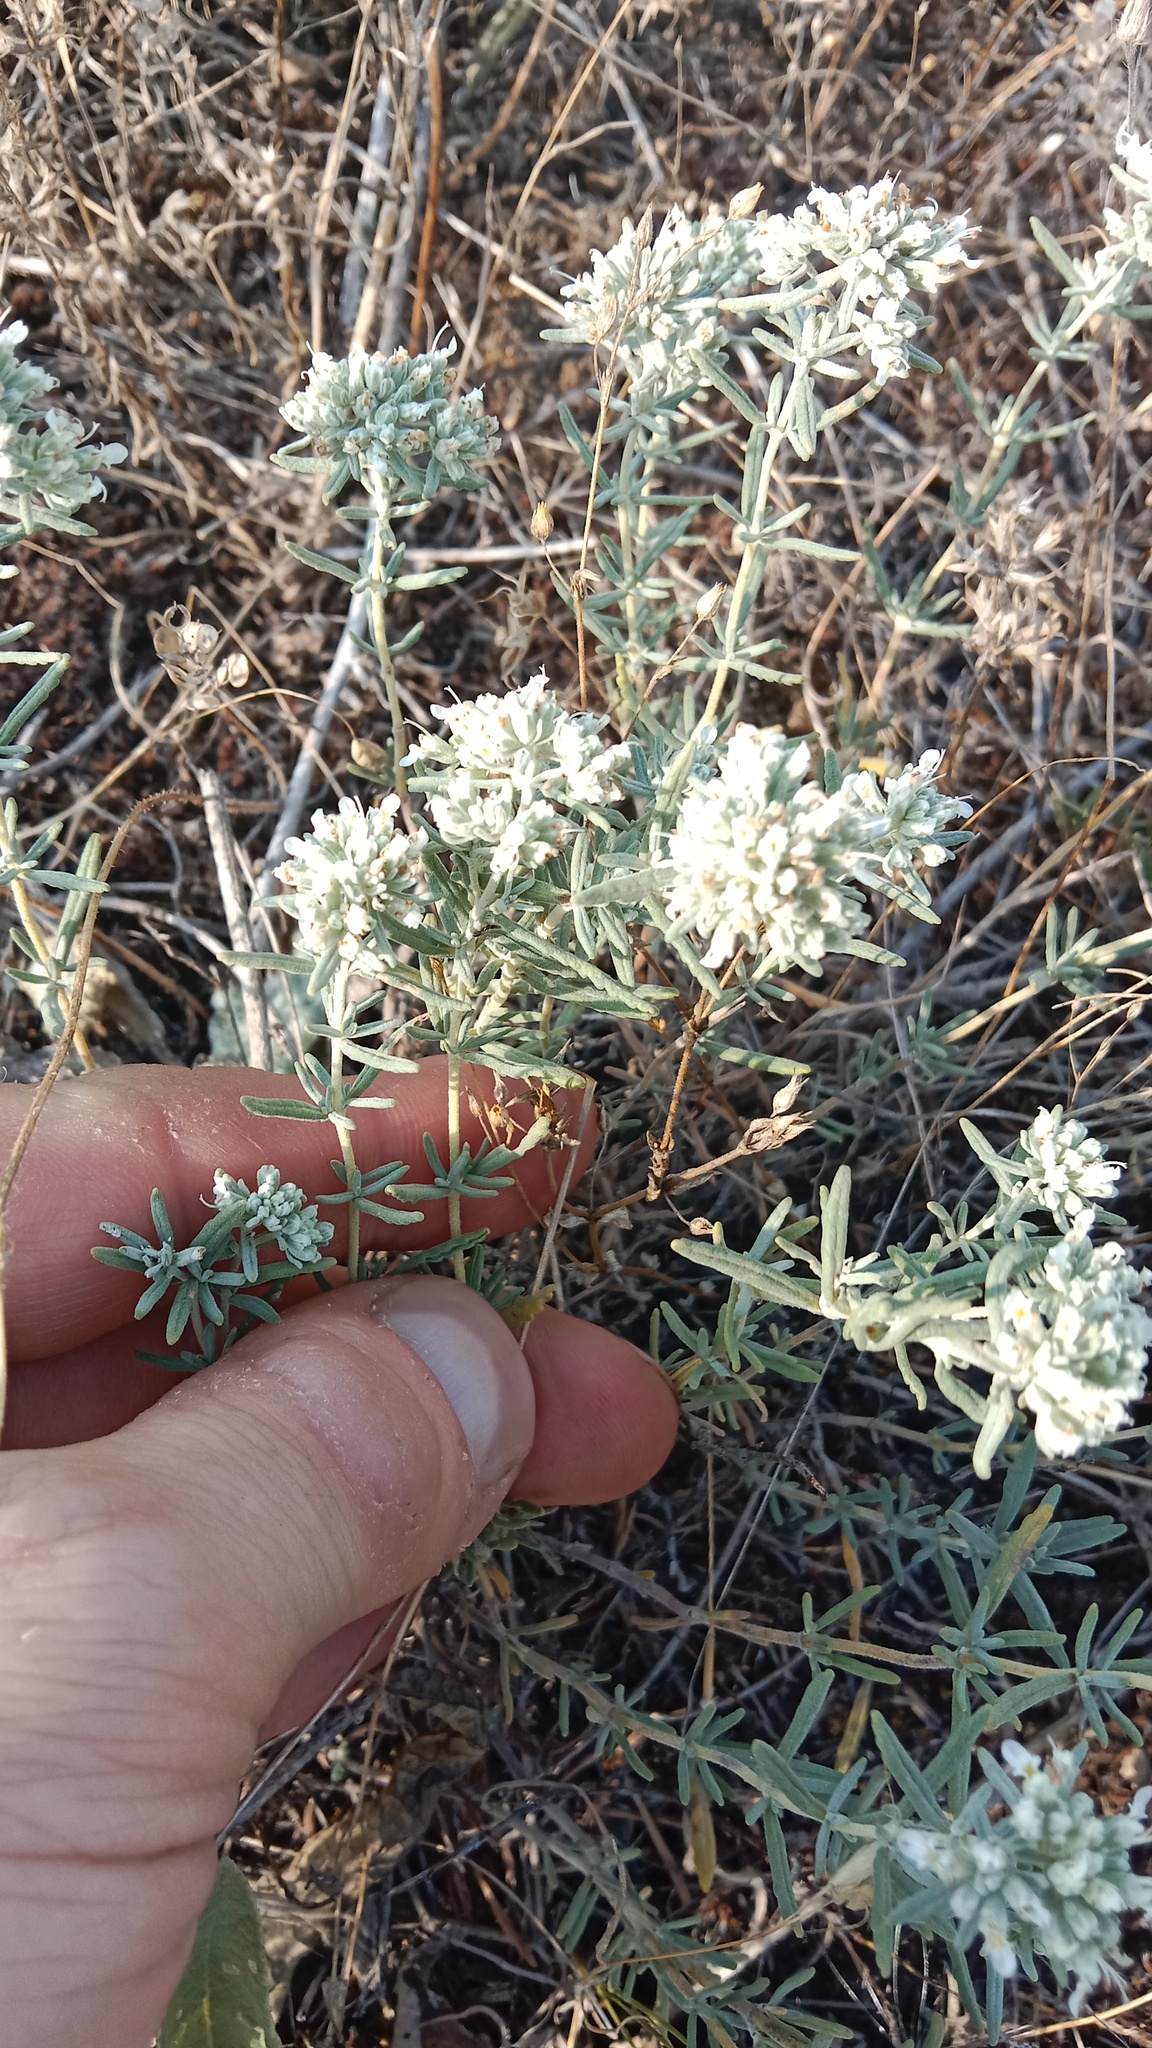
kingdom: Plantae
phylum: Tracheophyta
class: Magnoliopsida
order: Lamiales
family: Lamiaceae
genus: Teucrium
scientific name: Teucrium polium
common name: Poley
